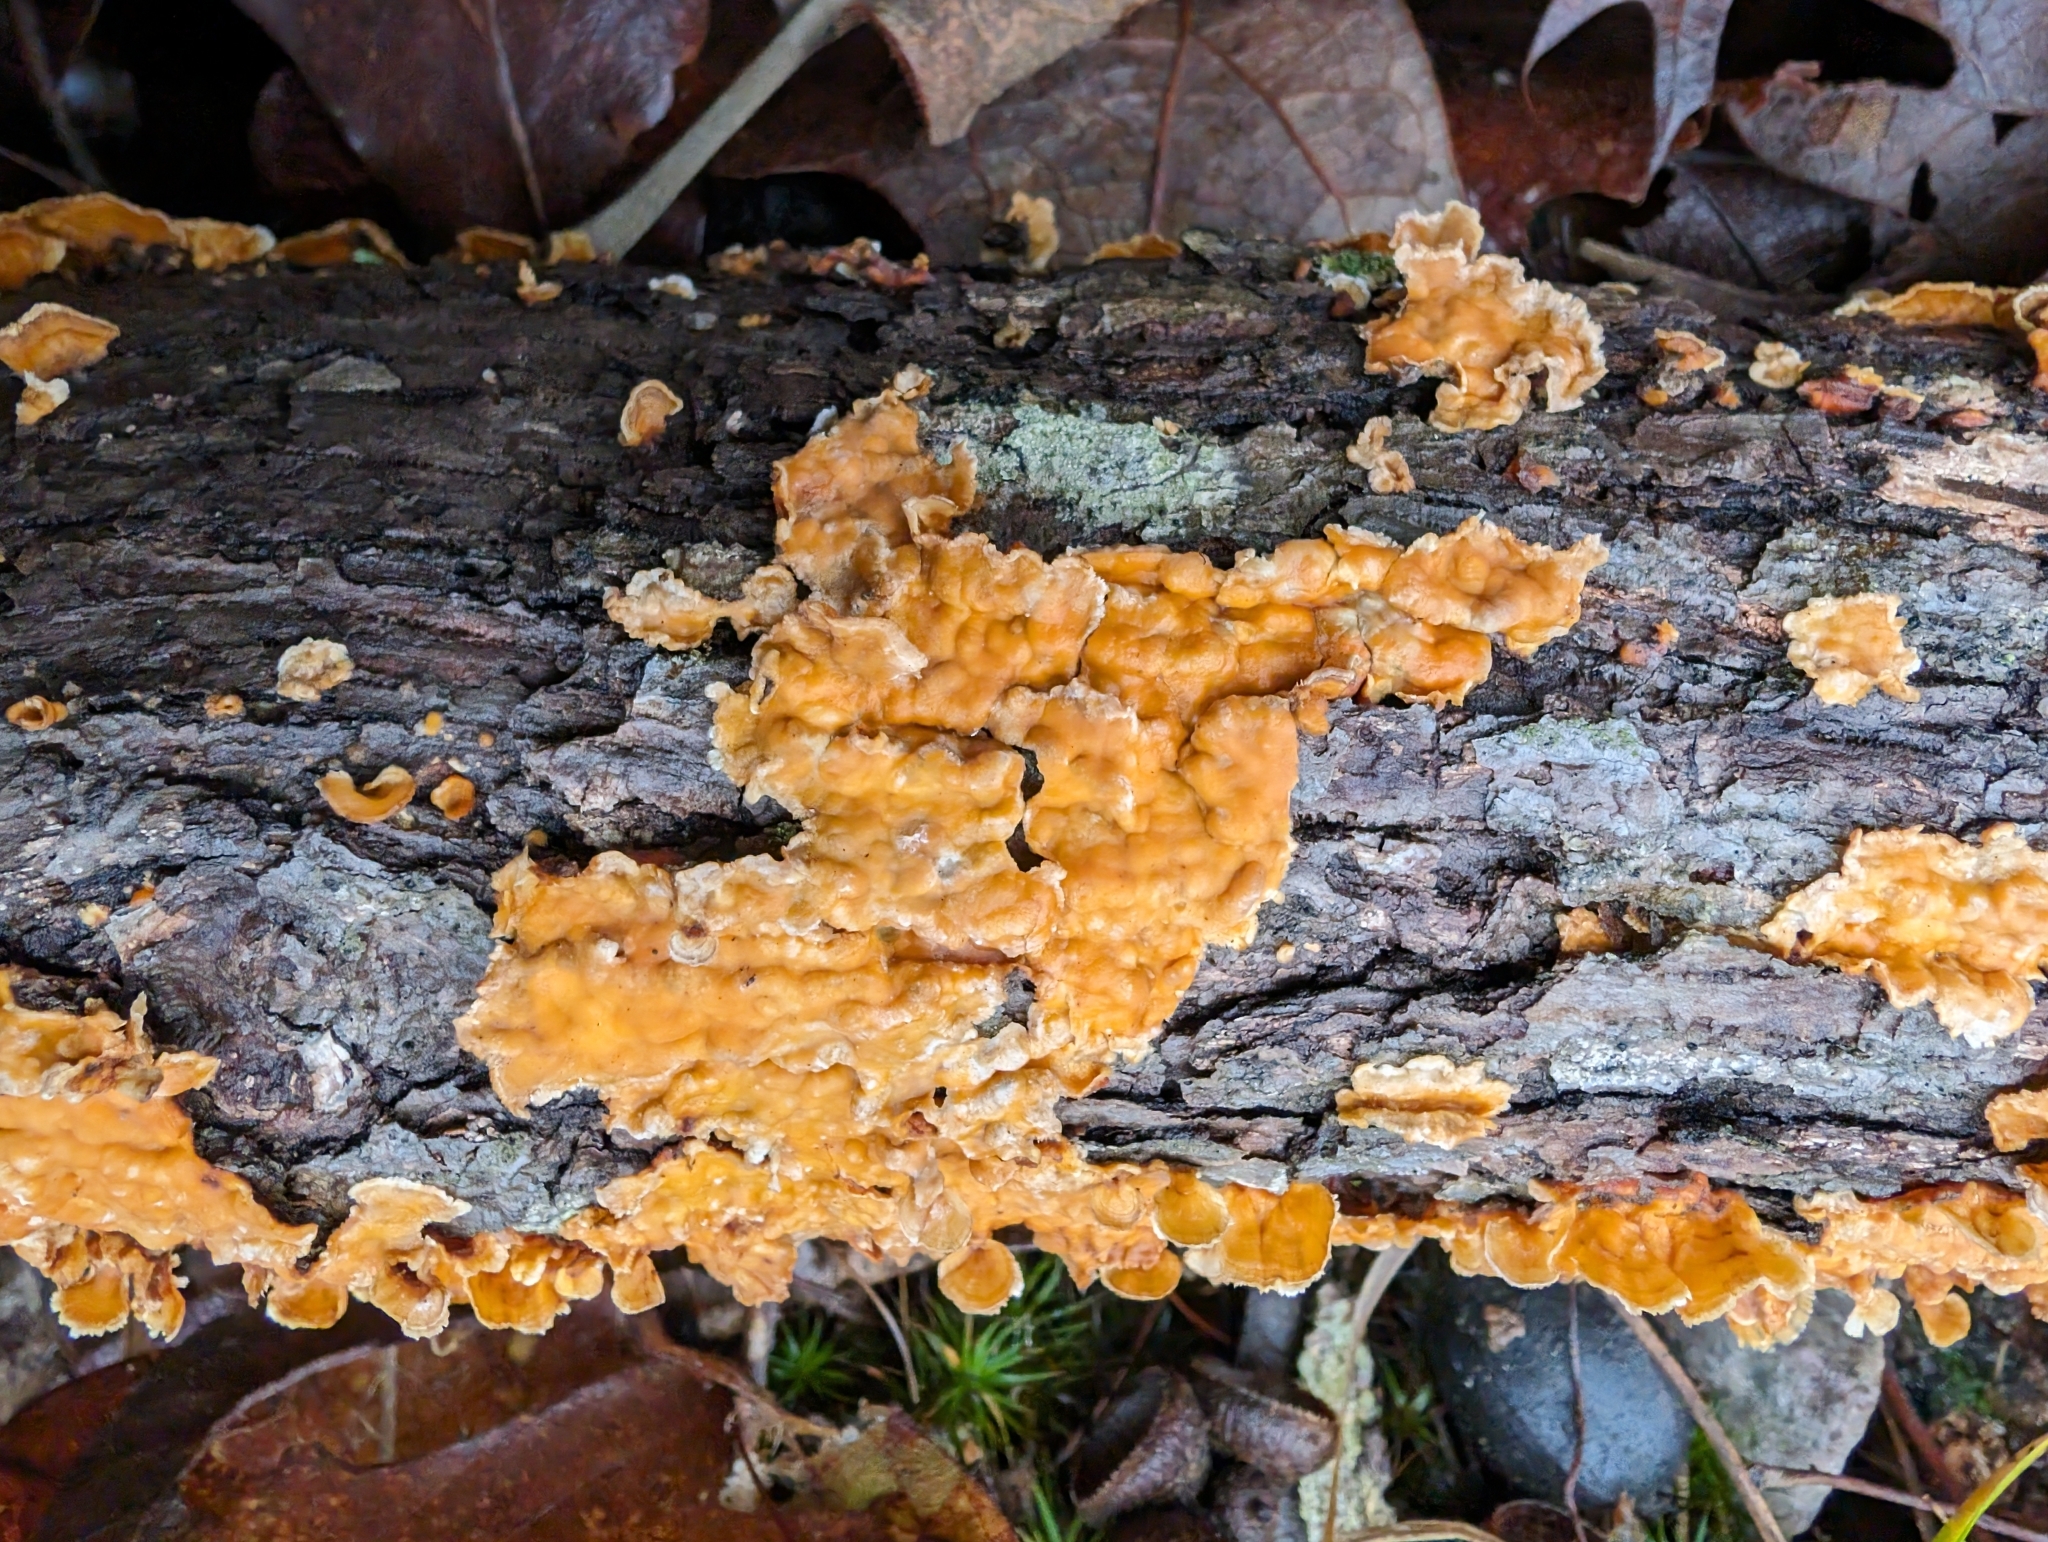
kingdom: Fungi
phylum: Basidiomycota
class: Agaricomycetes
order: Russulales
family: Stereaceae
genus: Stereum
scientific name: Stereum complicatum
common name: Crowded parchment
